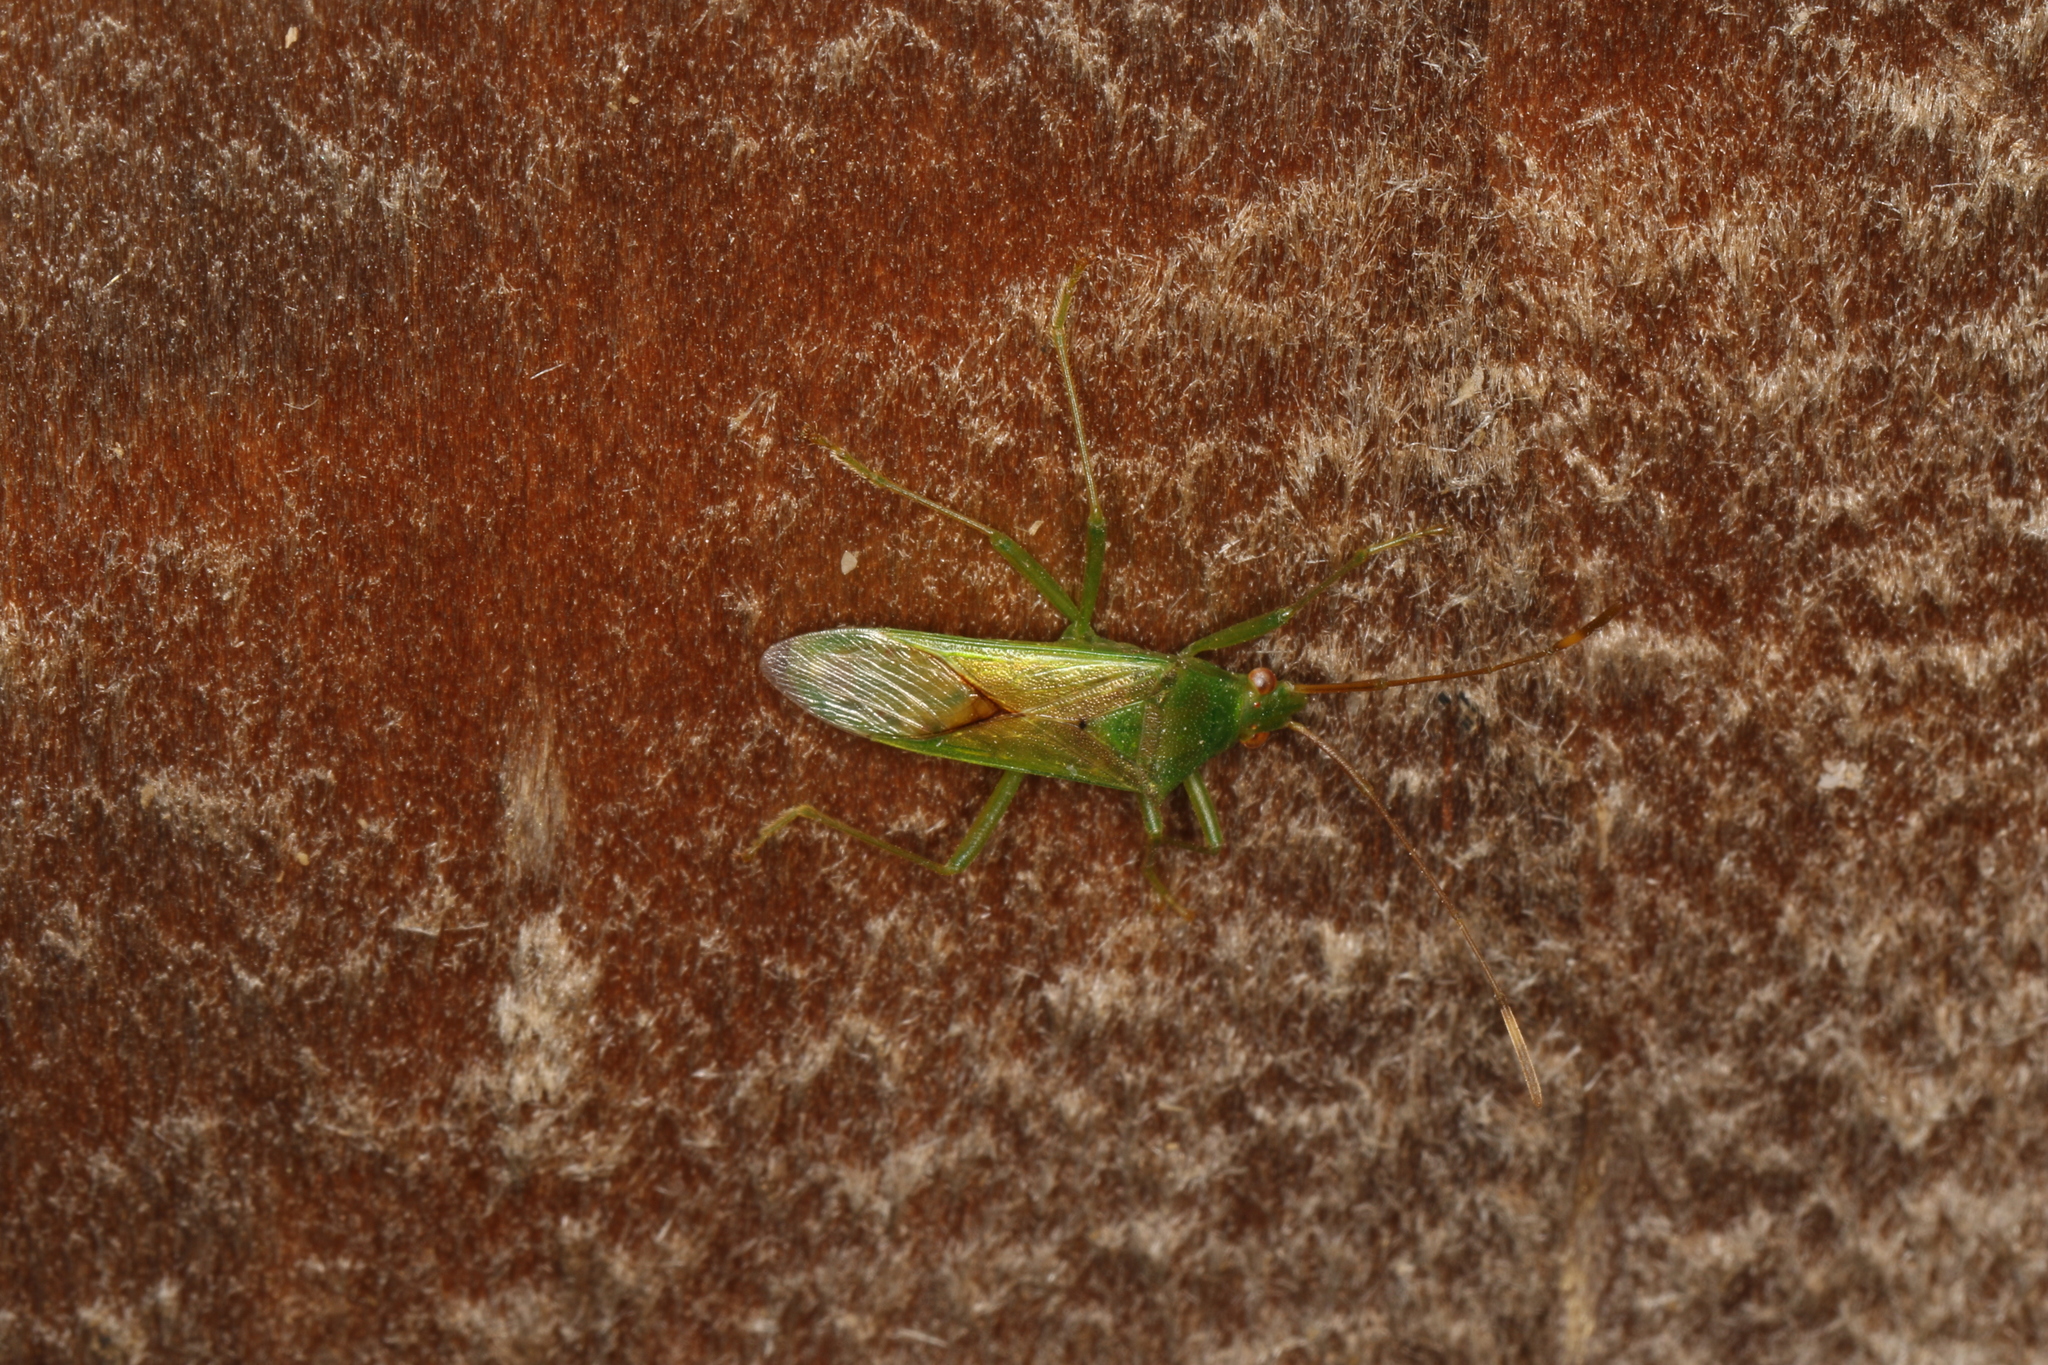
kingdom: Animalia
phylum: Arthropoda
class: Insecta
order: Hemiptera
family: Coreidae
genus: Amblypelta
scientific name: Amblypelta nitida
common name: Fruitspotting bug
